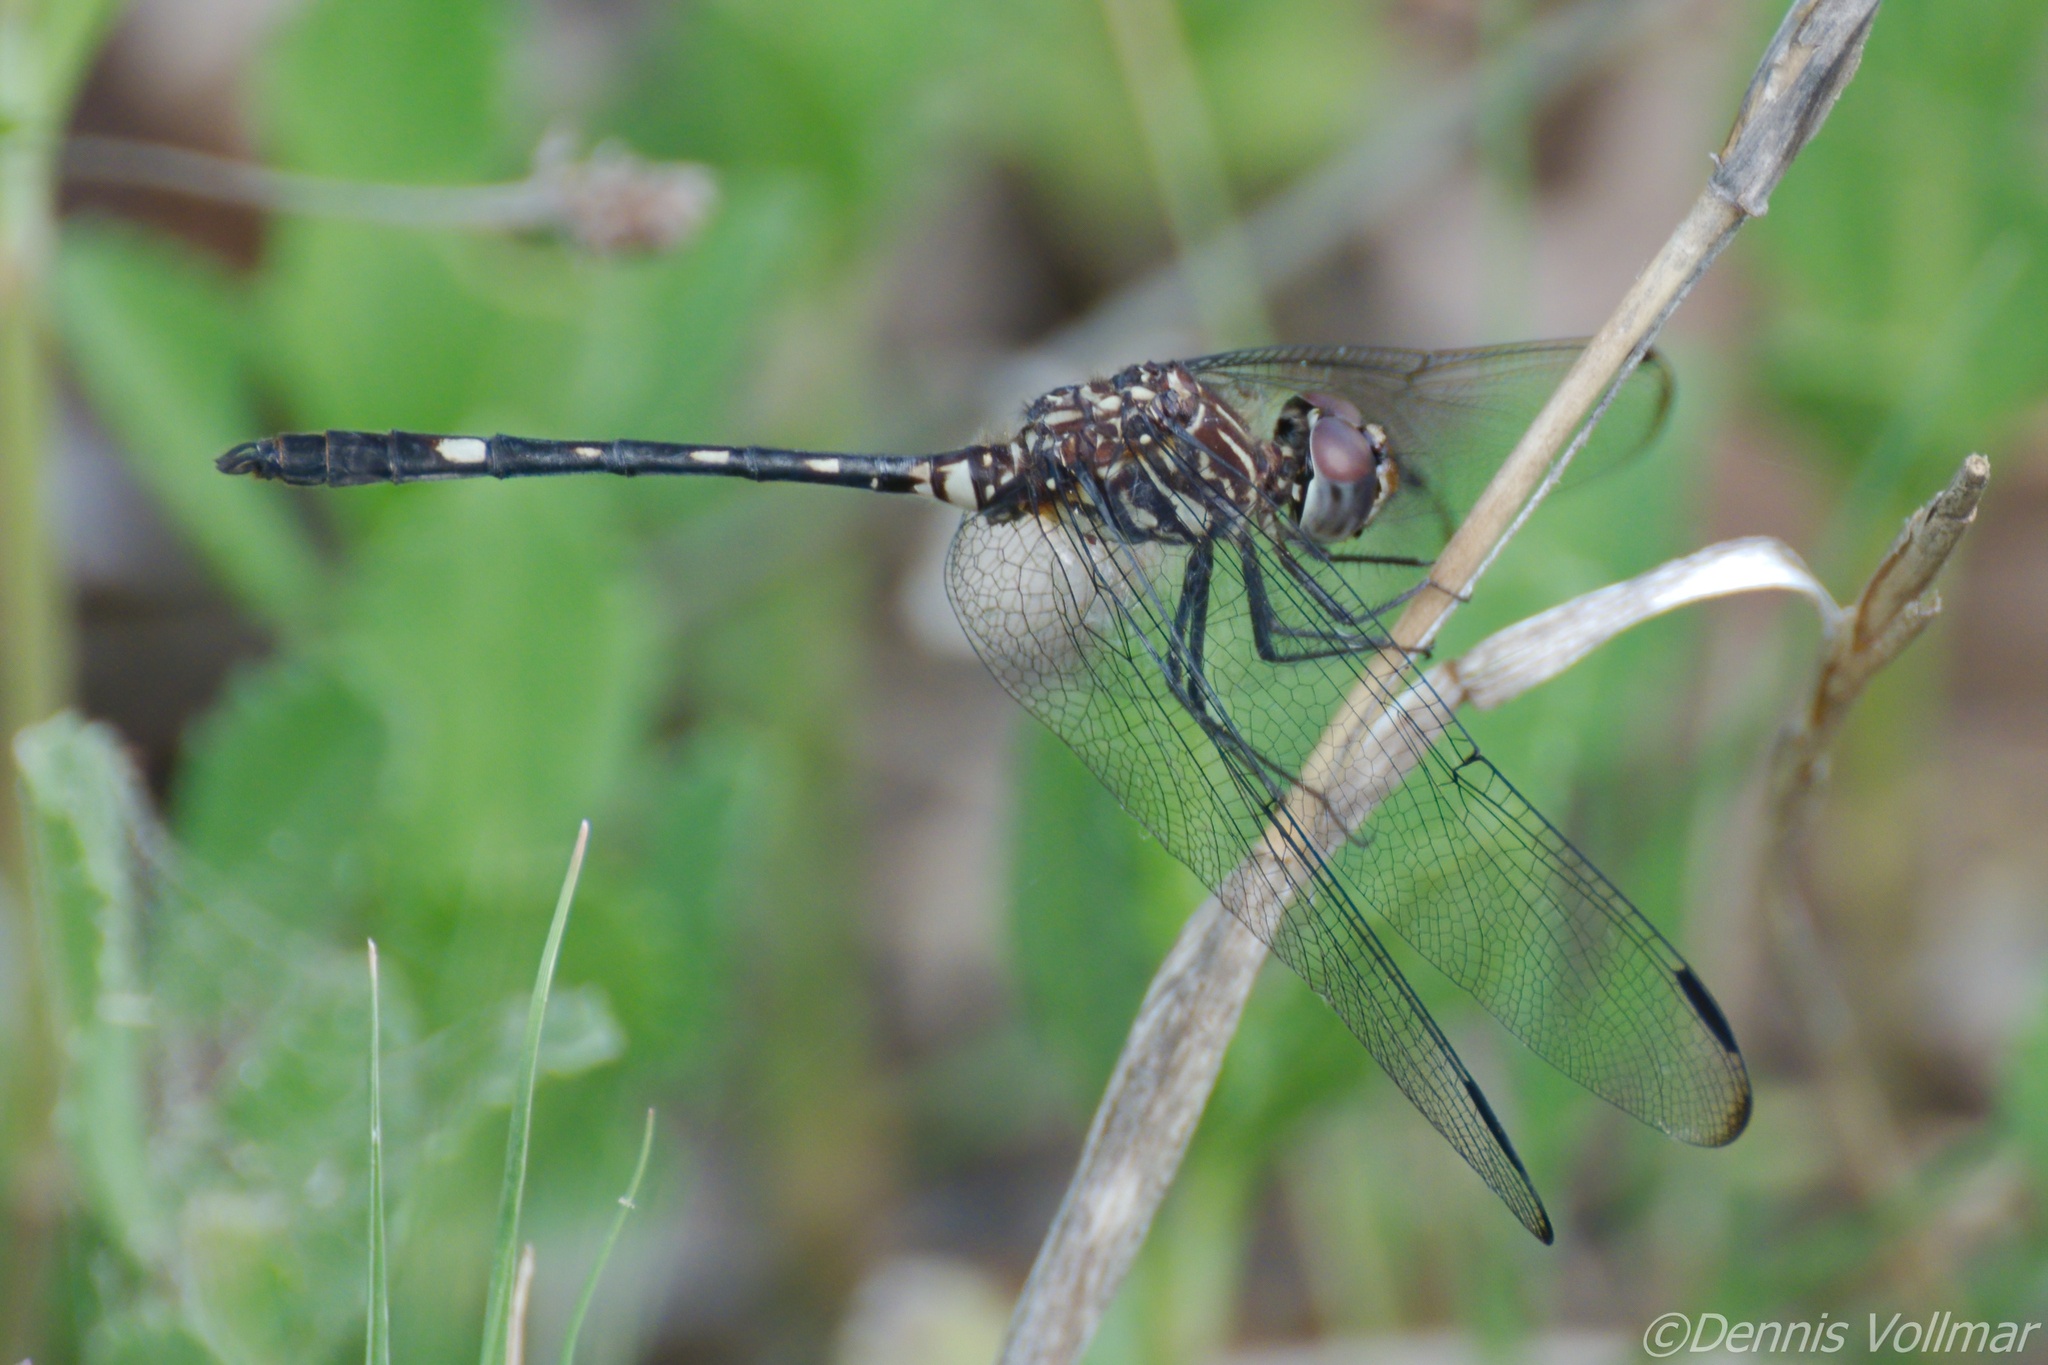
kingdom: Animalia
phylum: Arthropoda
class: Insecta
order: Odonata
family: Libellulidae
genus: Dythemis
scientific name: Dythemis velox
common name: Swift setwing
